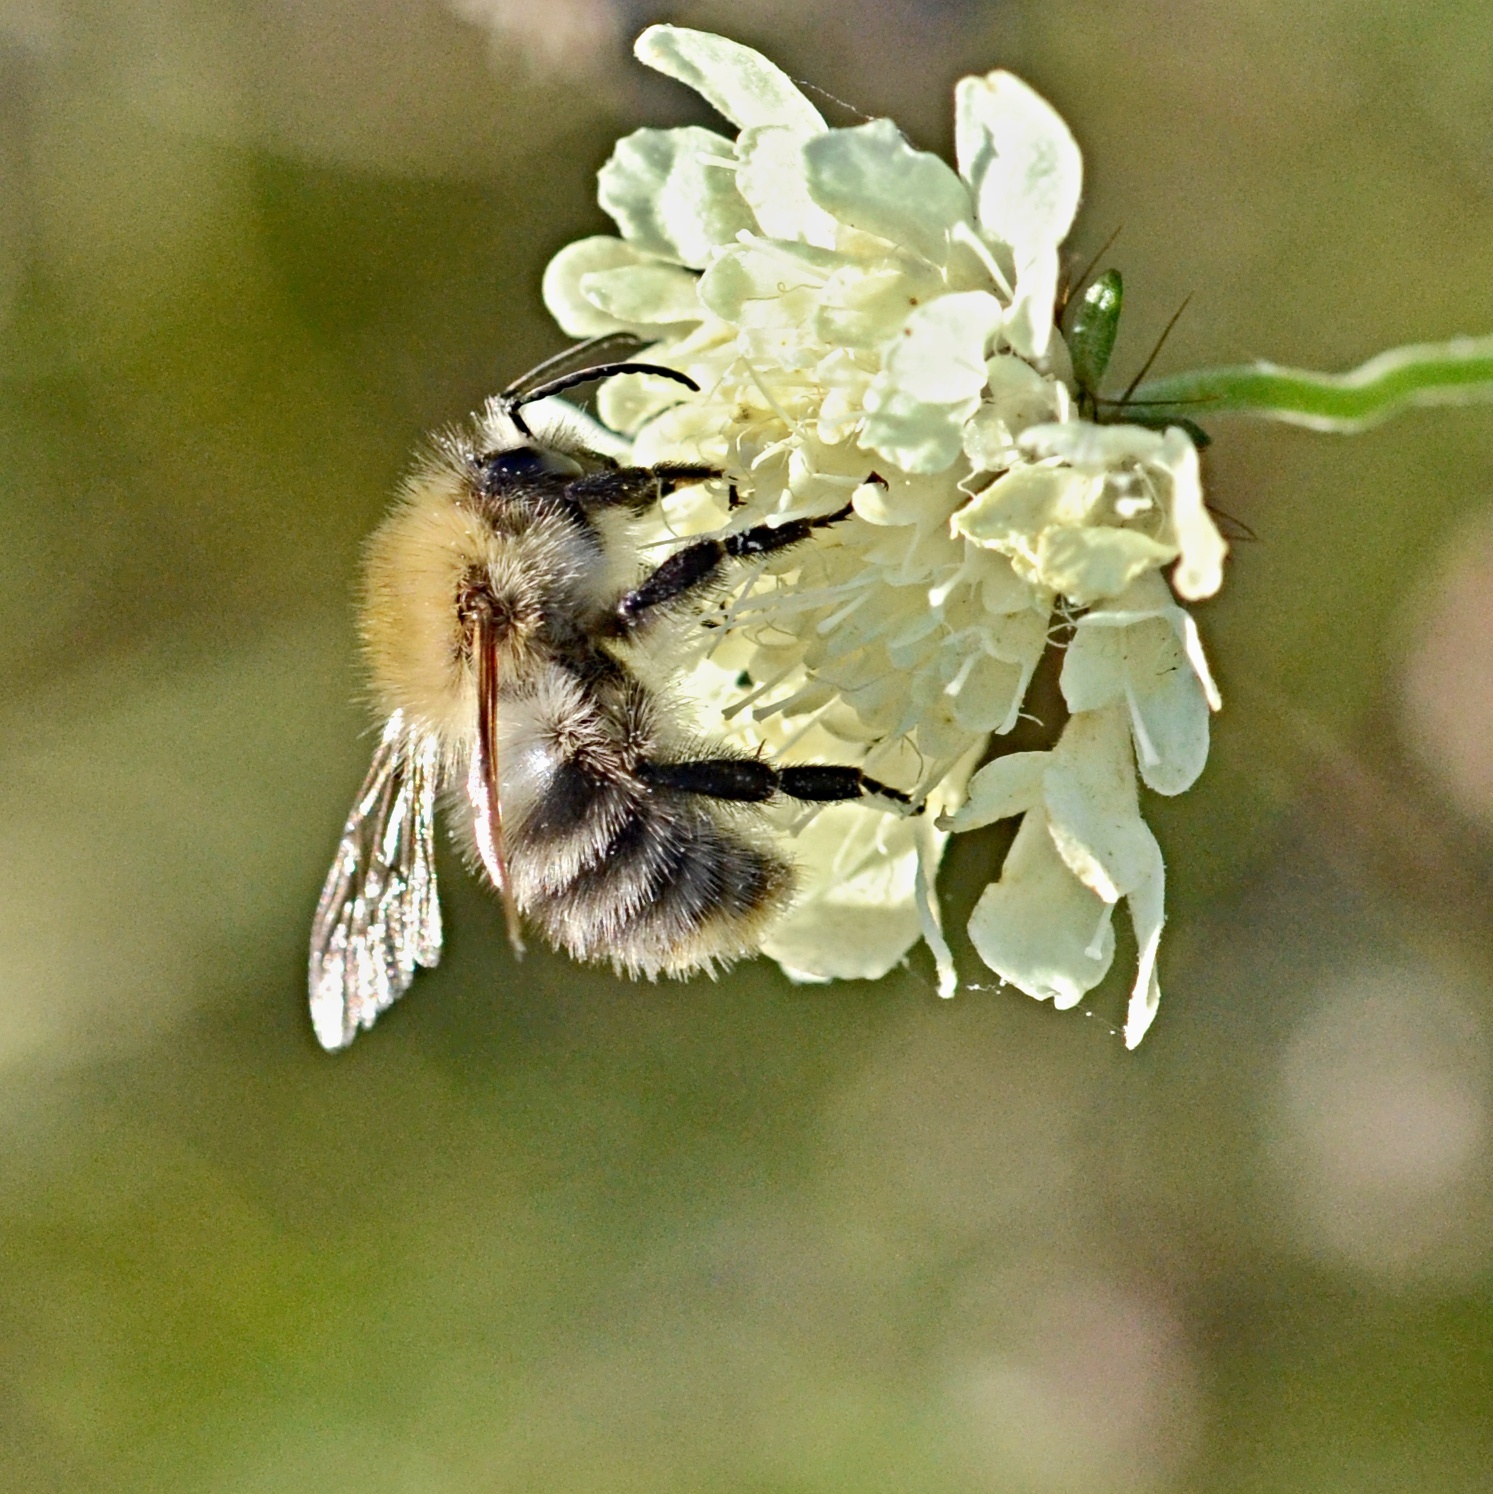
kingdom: Animalia
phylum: Arthropoda
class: Insecta
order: Hymenoptera
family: Apidae
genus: Bombus
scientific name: Bombus pascuorum
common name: Common carder bee
